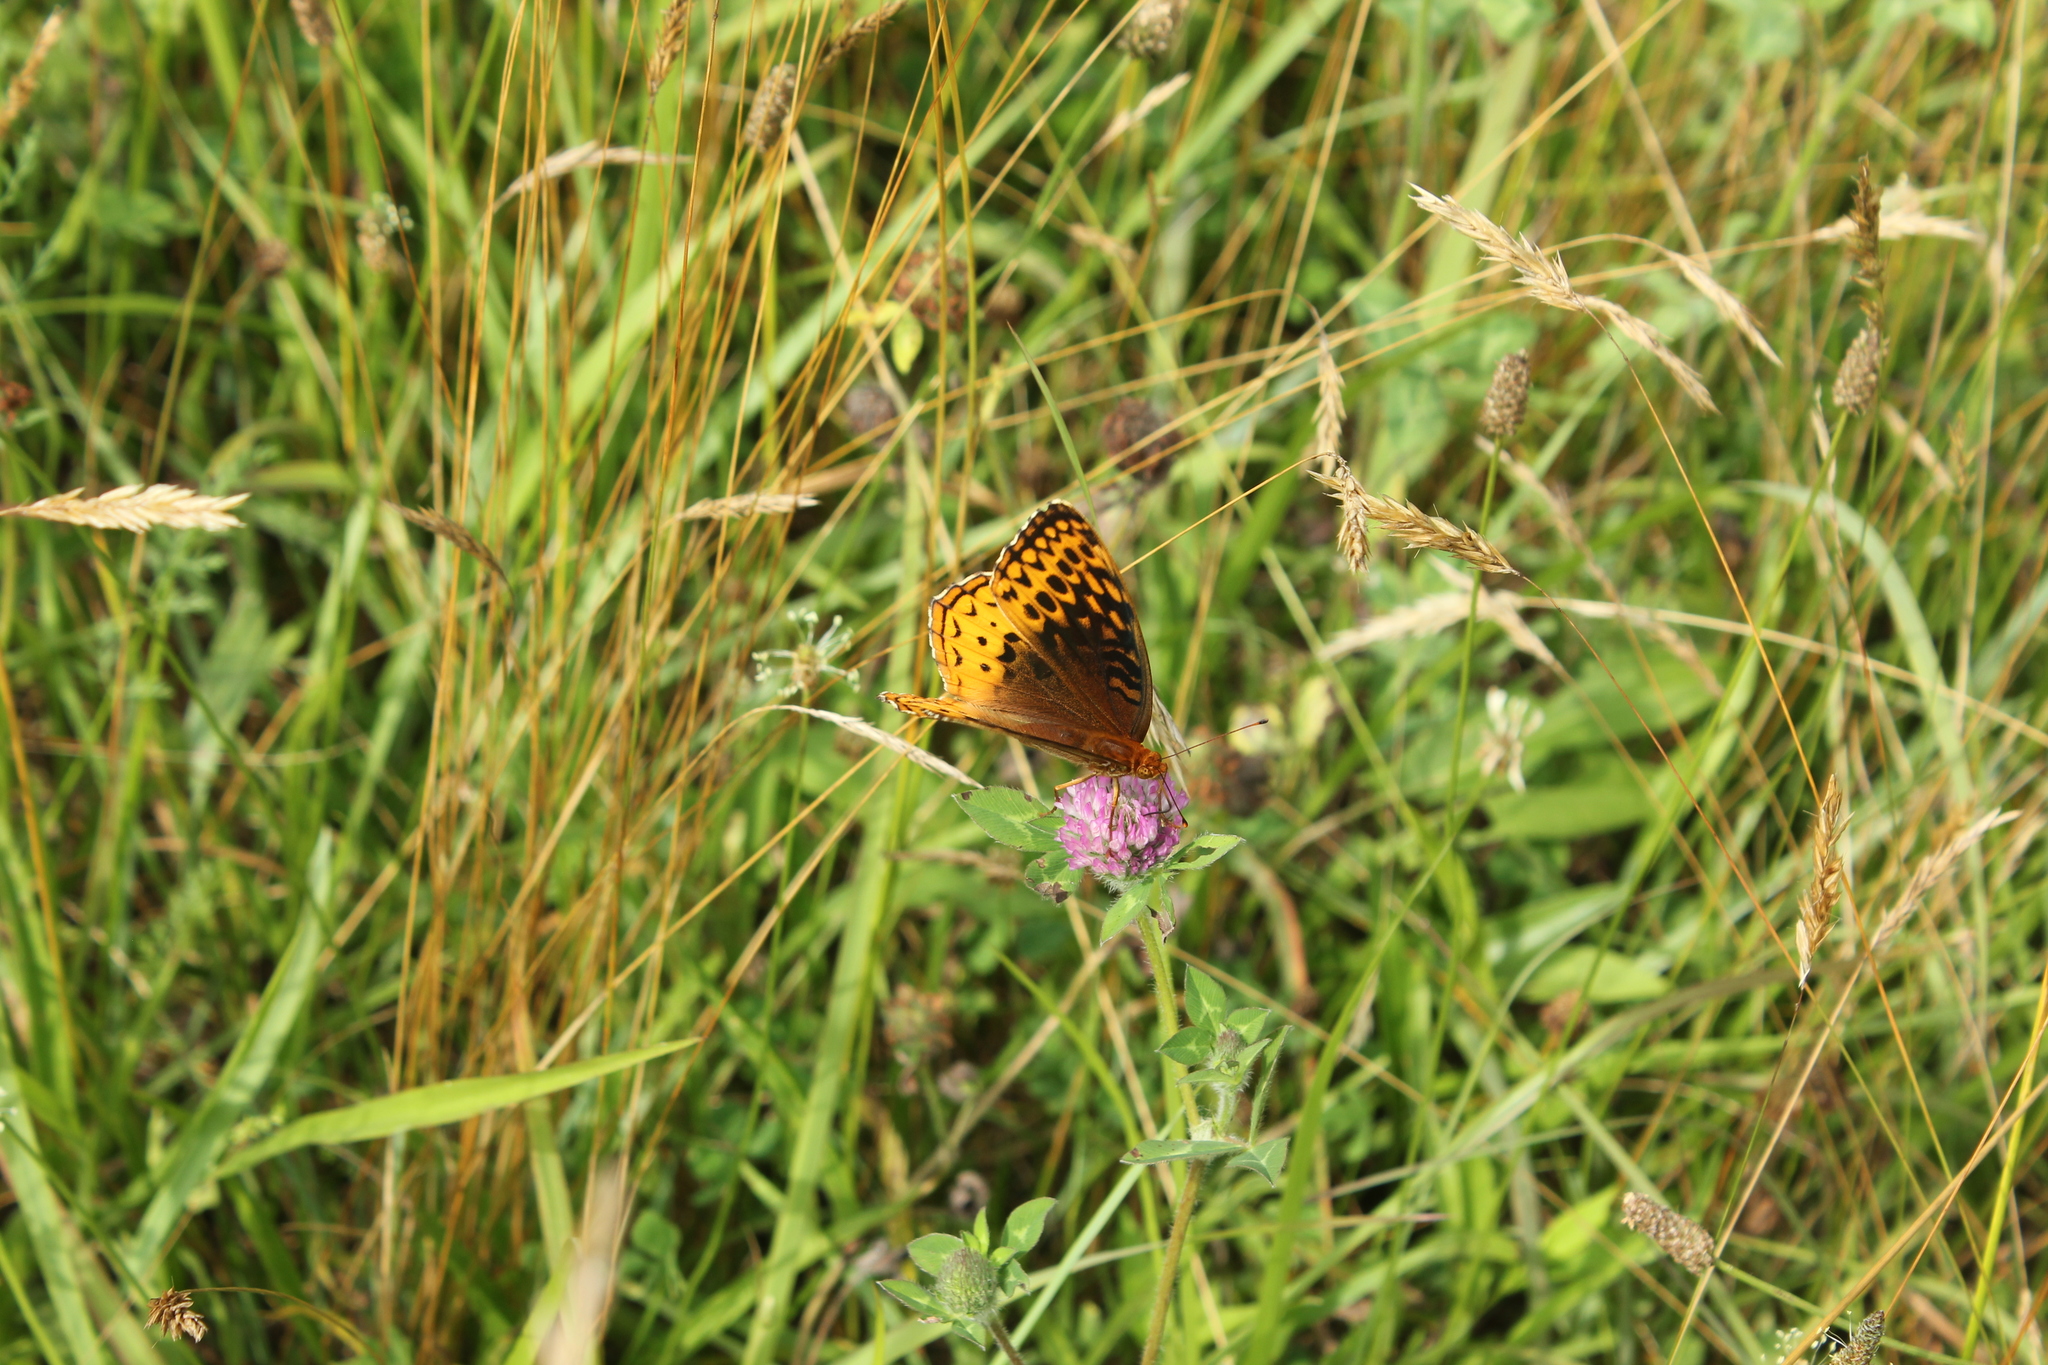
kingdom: Animalia
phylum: Arthropoda
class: Insecta
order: Lepidoptera
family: Nymphalidae
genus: Speyeria
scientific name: Speyeria cybele
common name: Great spangled fritillary
